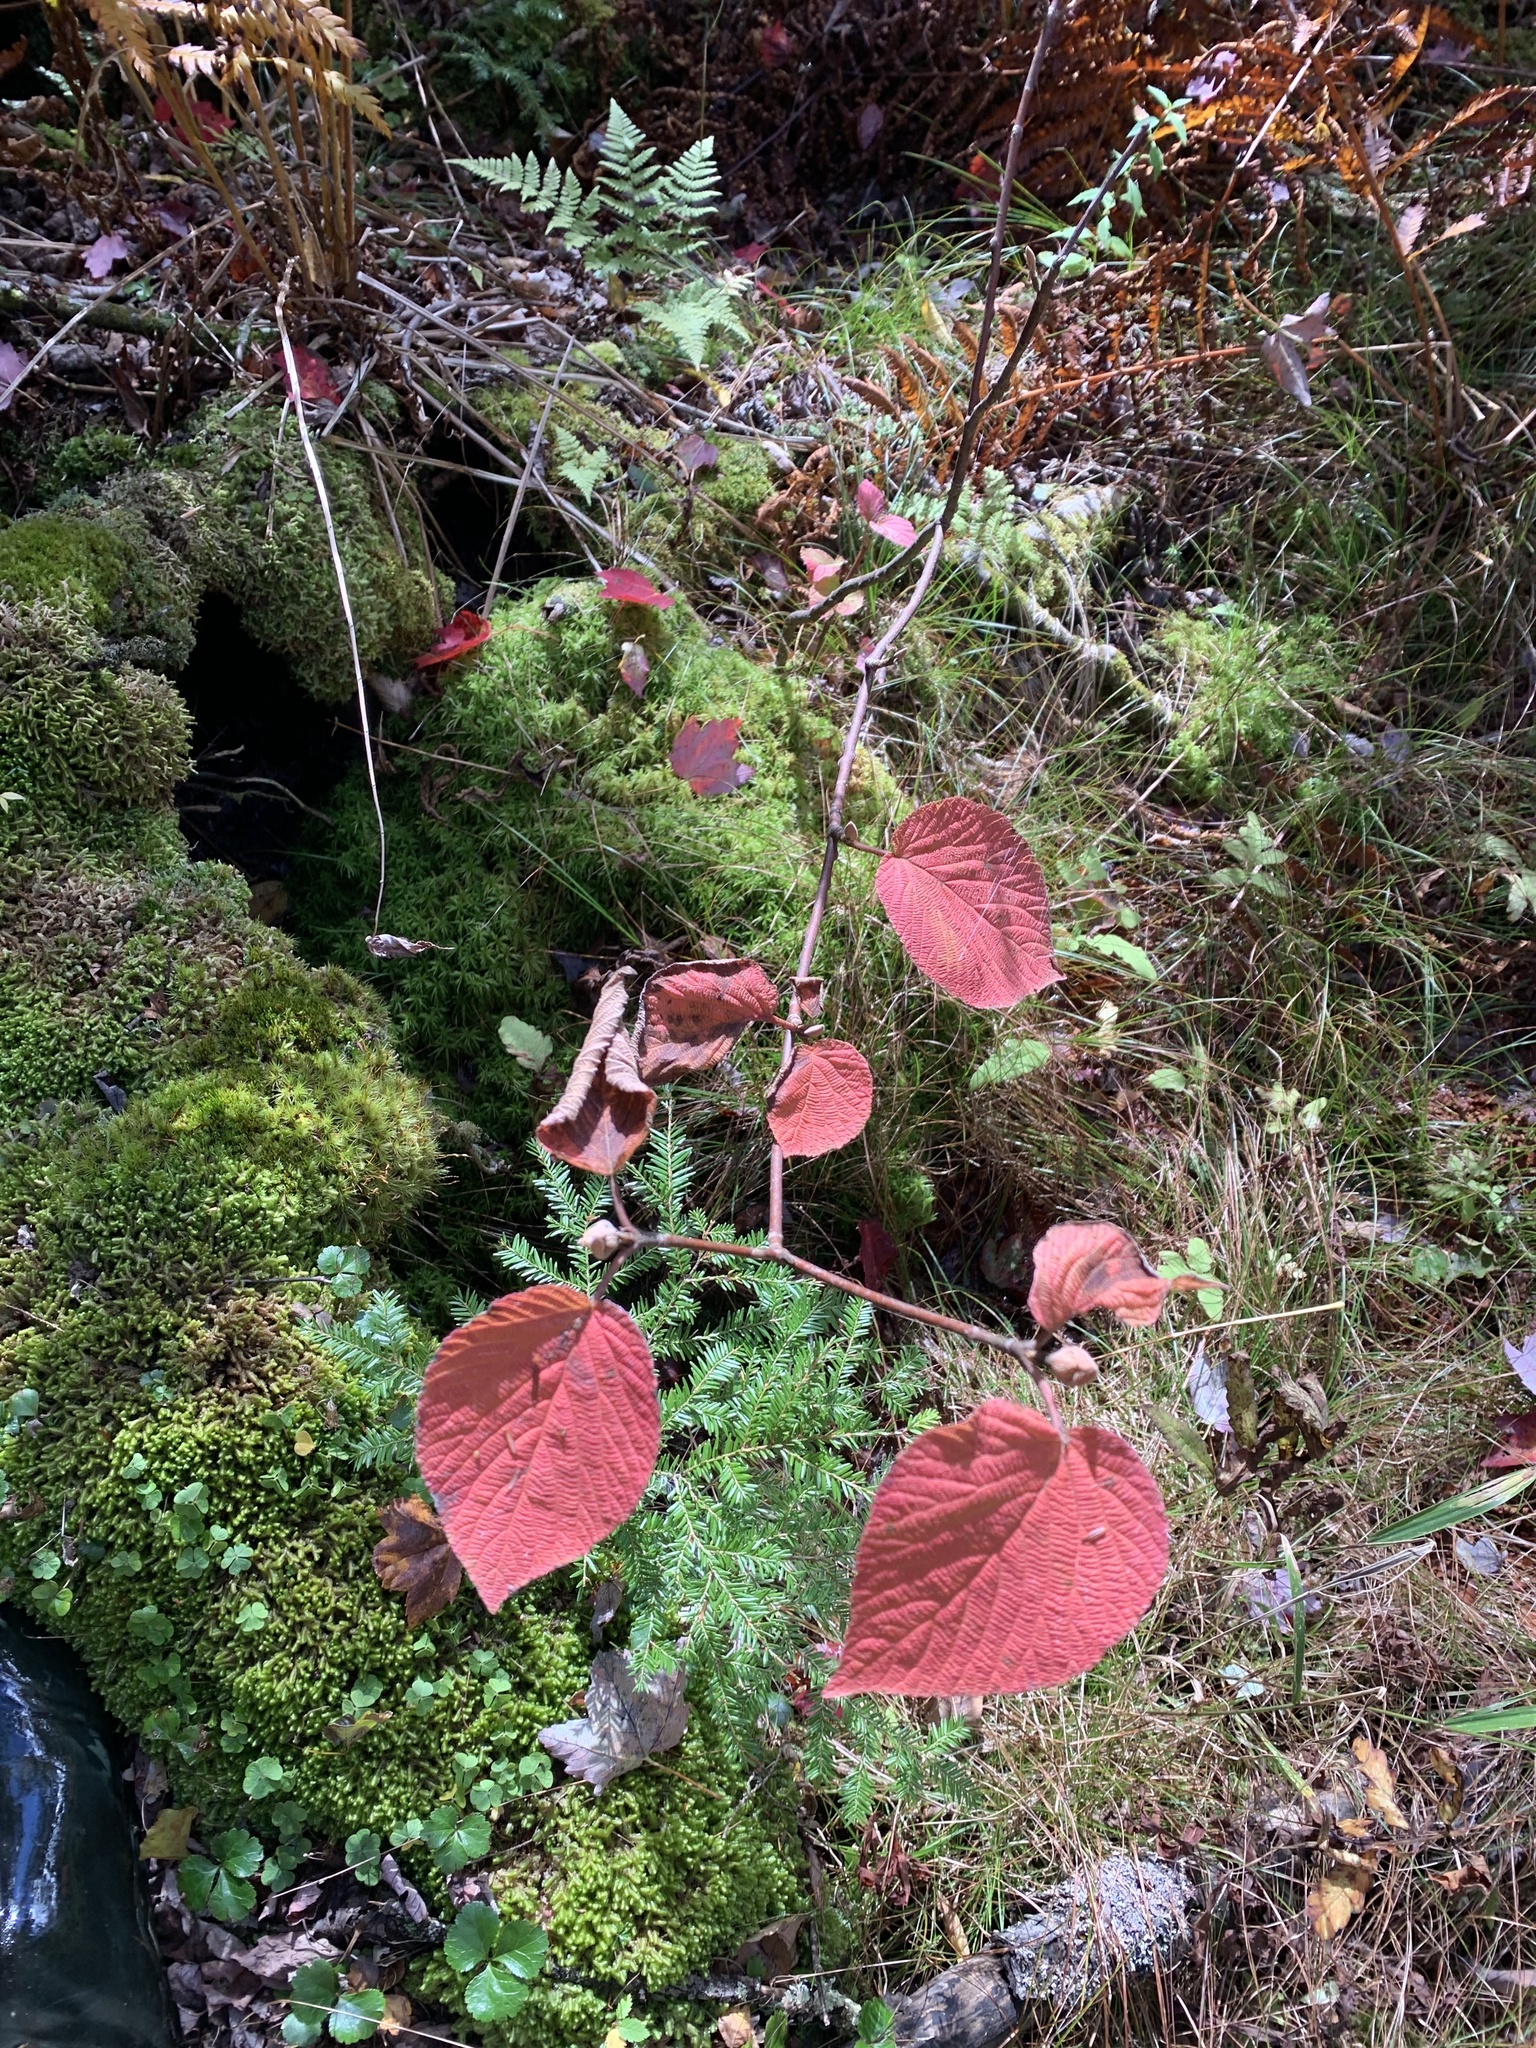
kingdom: Plantae
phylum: Tracheophyta
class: Magnoliopsida
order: Dipsacales
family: Viburnaceae
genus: Viburnum
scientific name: Viburnum lantanoides
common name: Hobblebush
